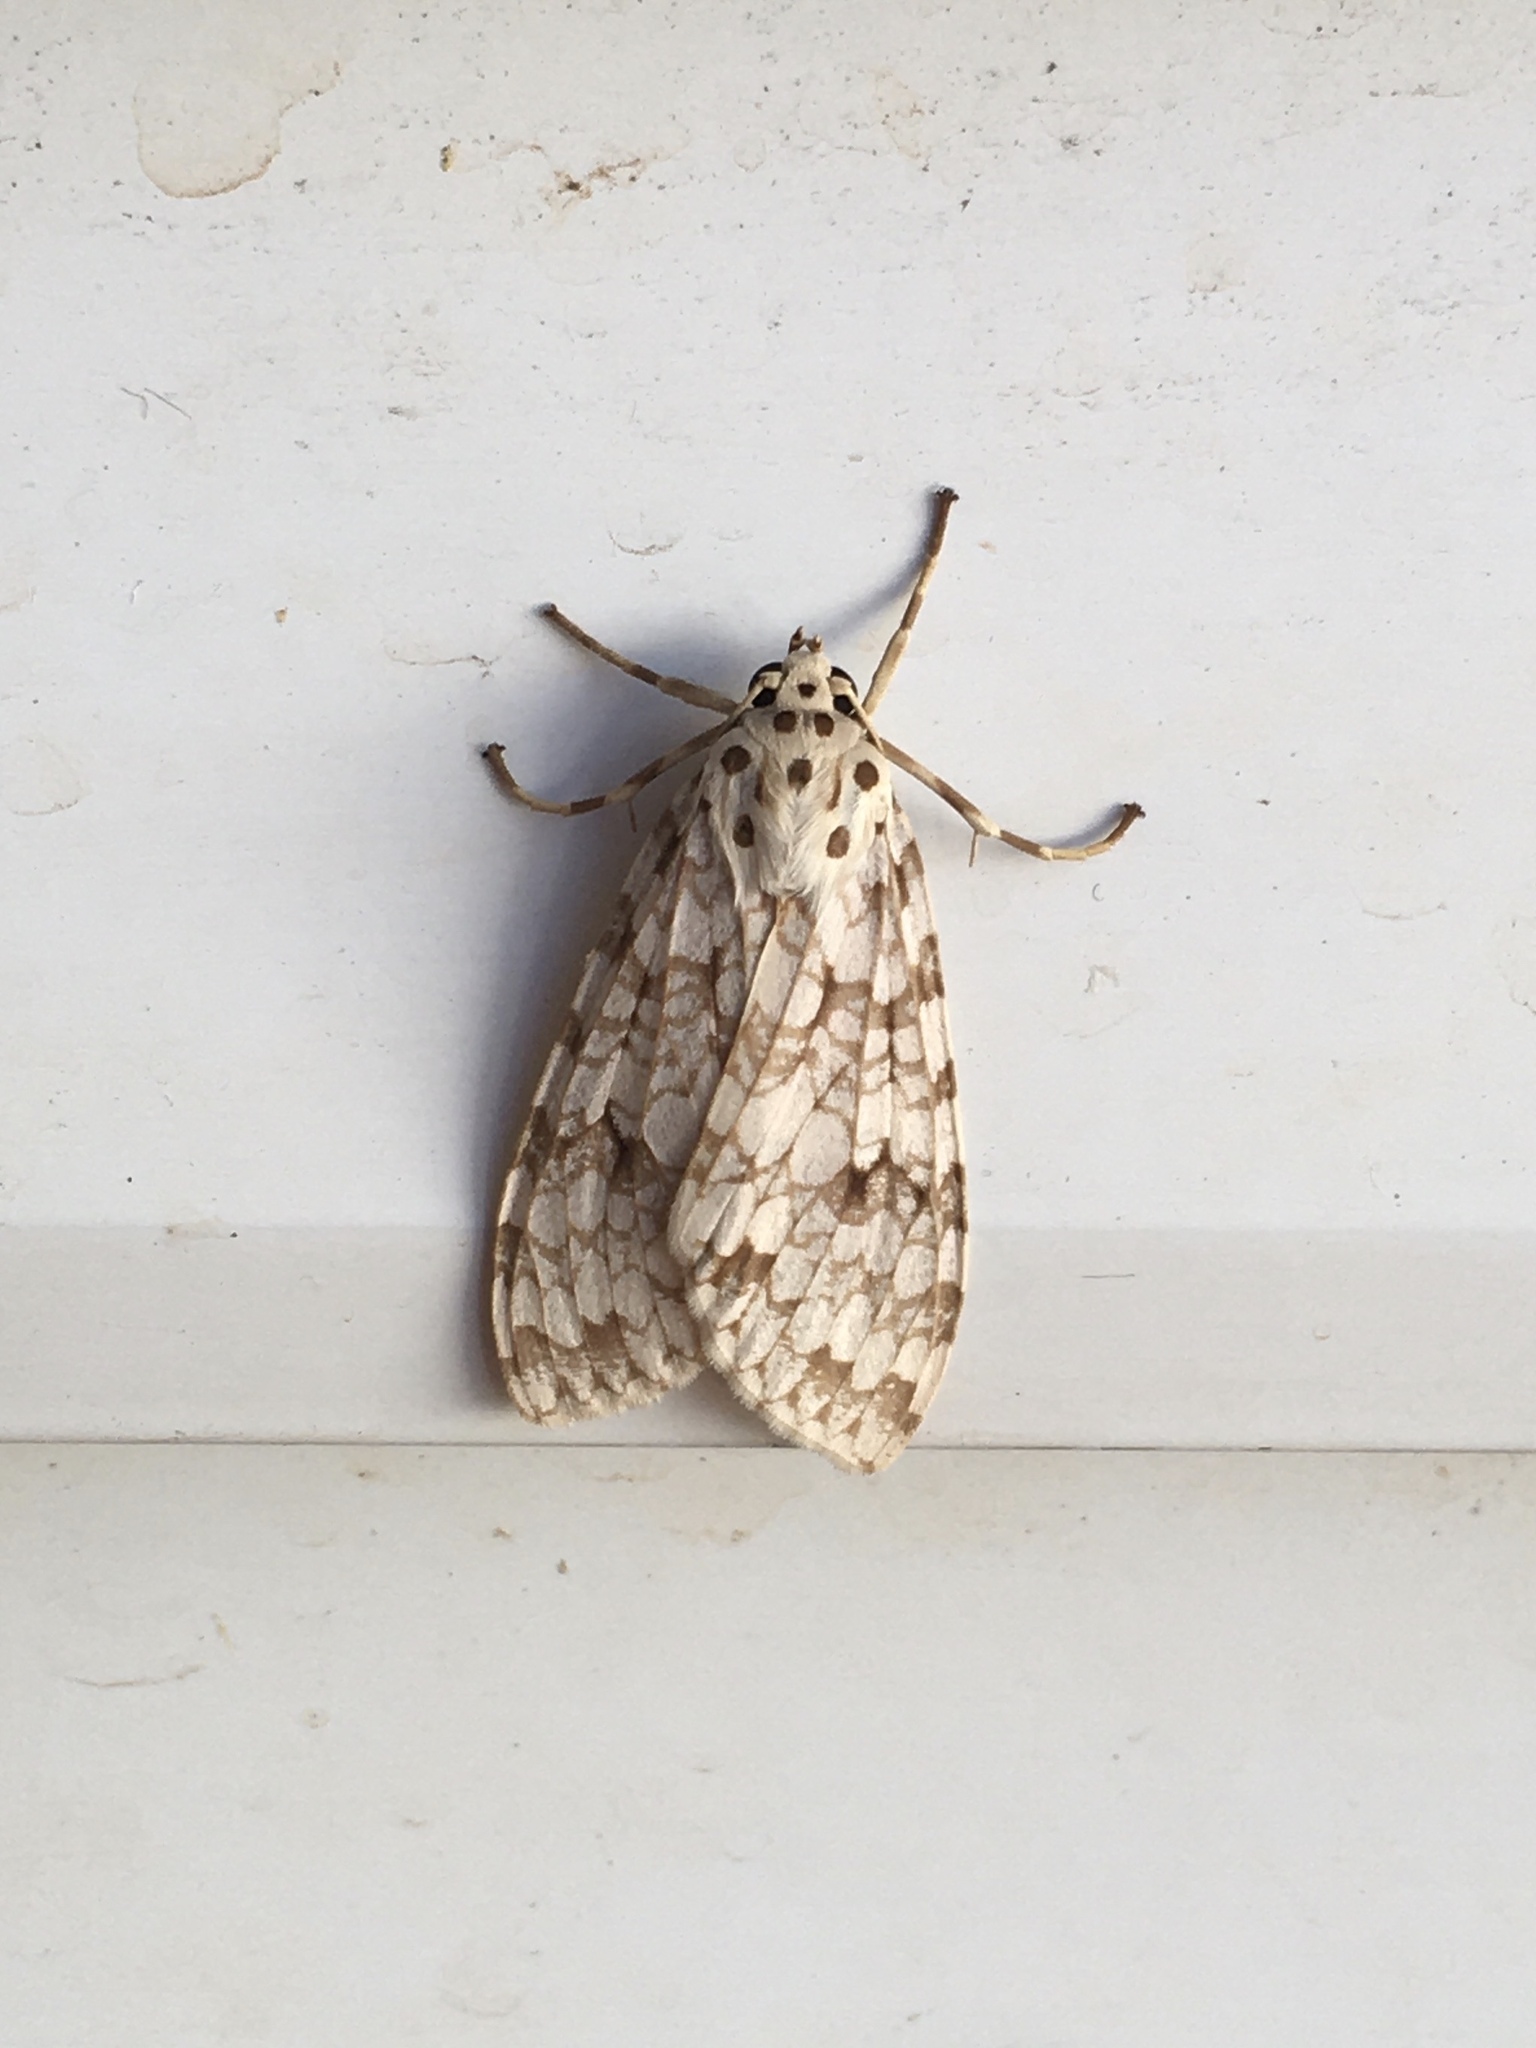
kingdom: Animalia
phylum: Arthropoda
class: Insecta
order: Lepidoptera
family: Erebidae
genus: Carales
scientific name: Carales astur
